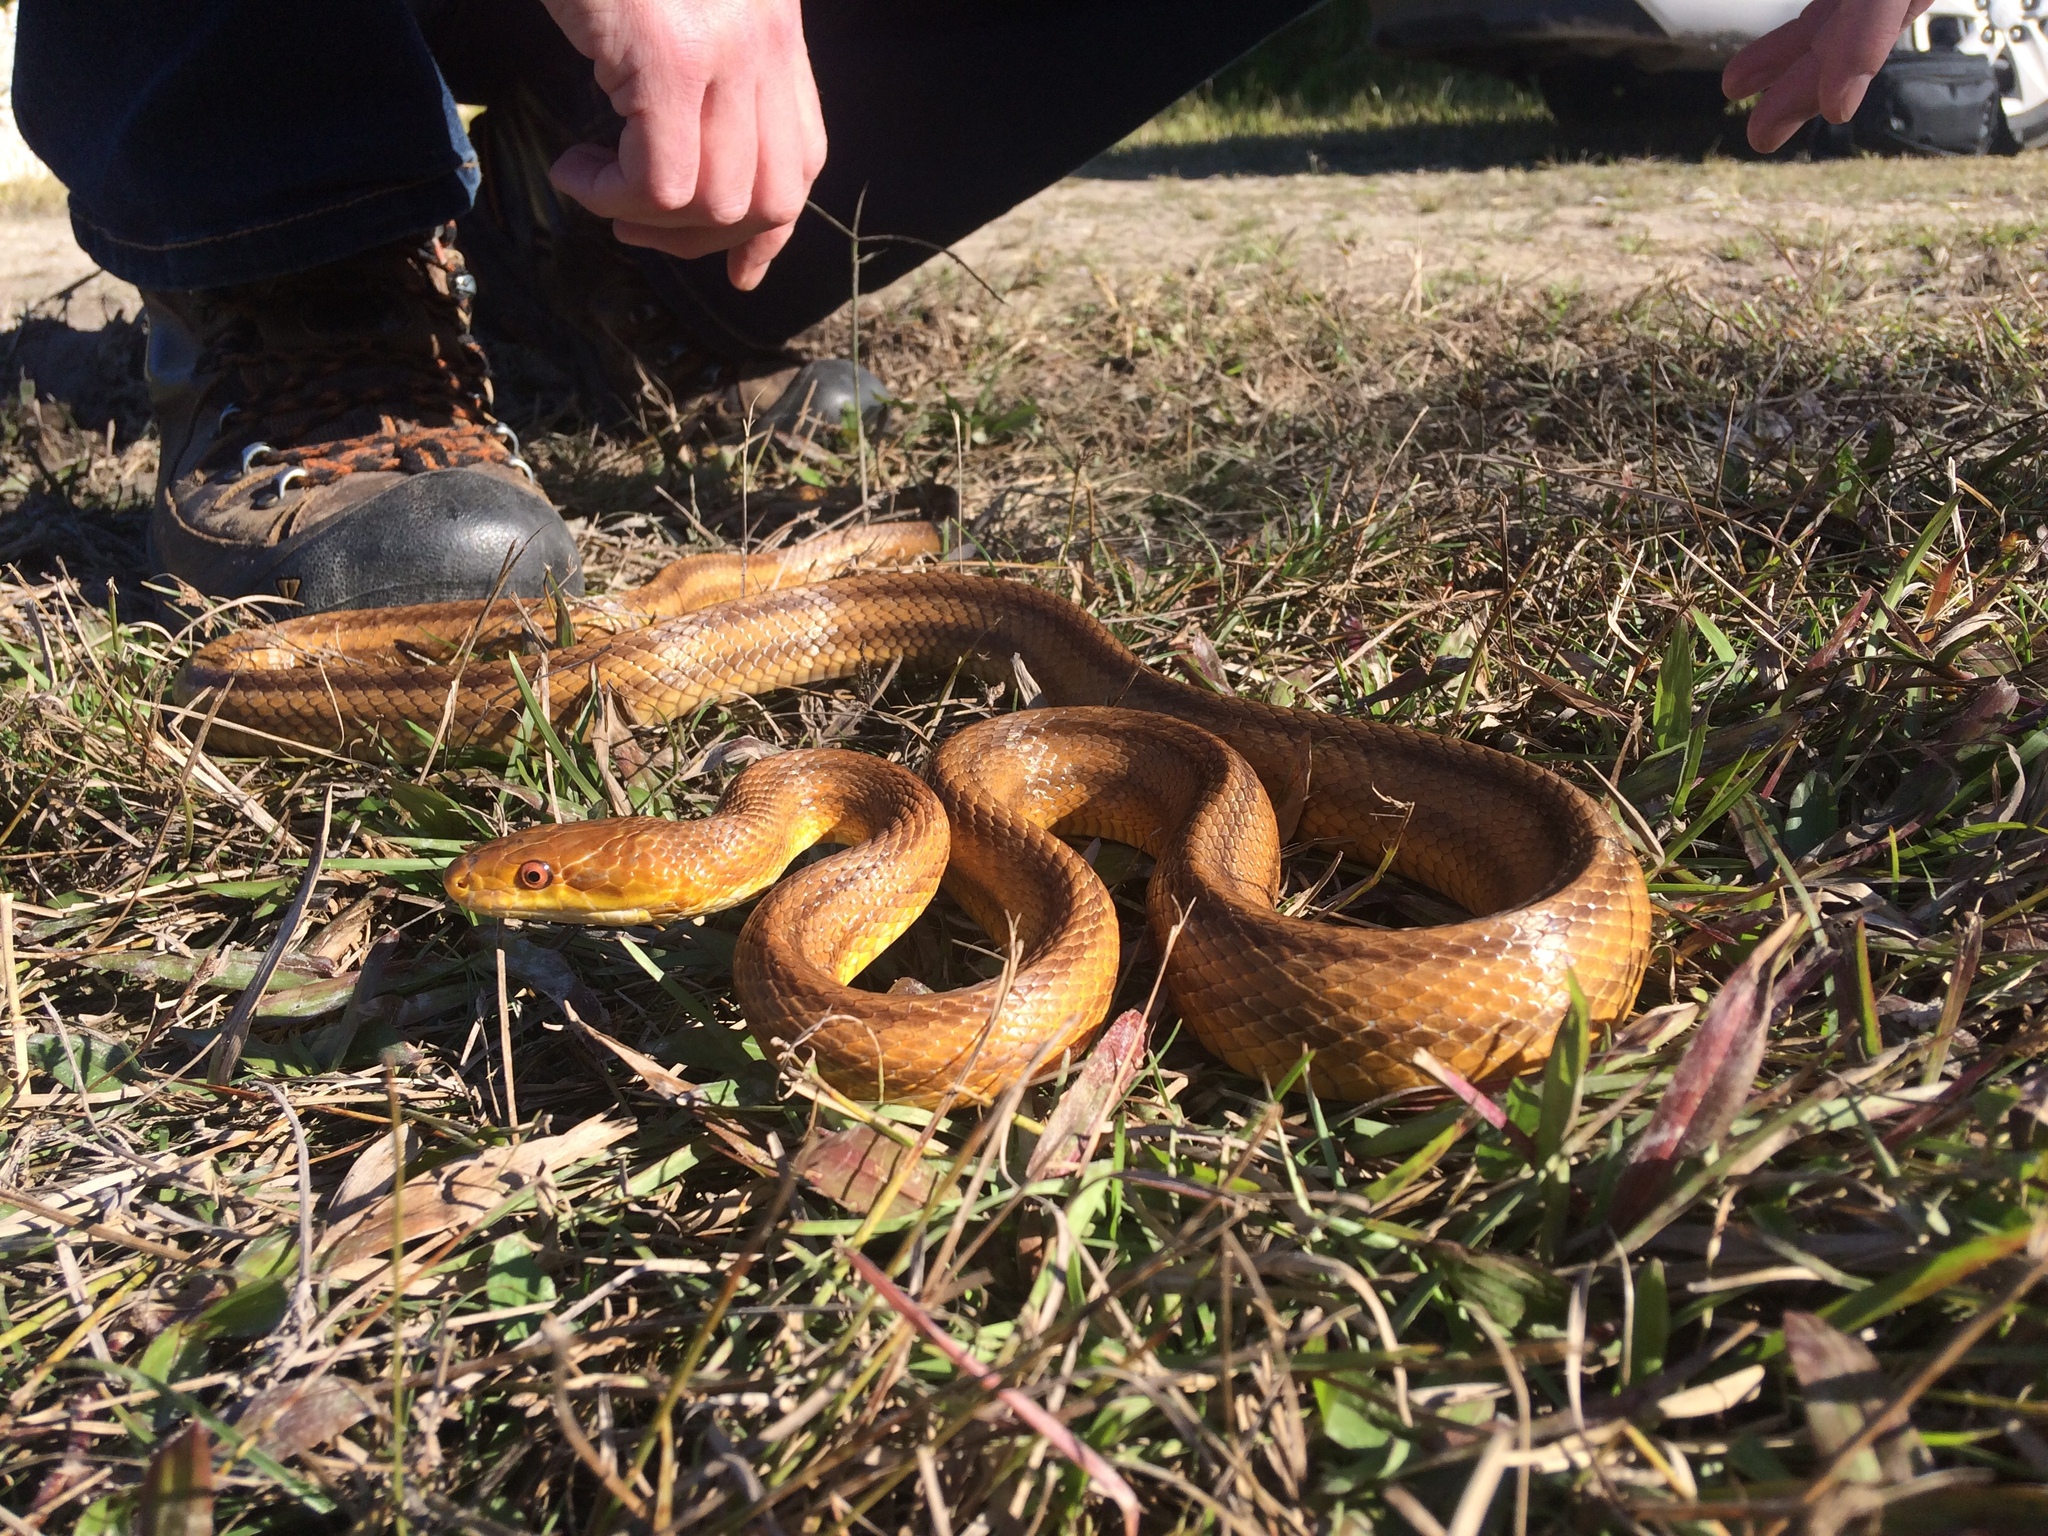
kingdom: Animalia
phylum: Chordata
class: Squamata
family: Colubridae
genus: Pantherophis
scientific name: Pantherophis alleghaniensis
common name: Eastern rat snake
